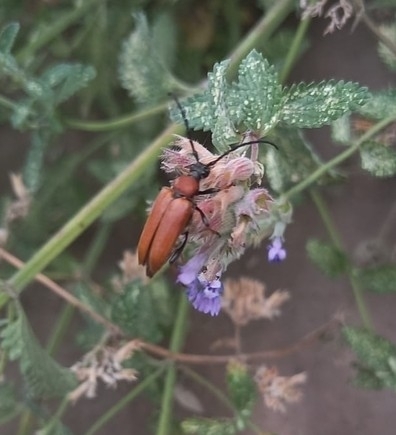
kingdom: Animalia
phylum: Arthropoda
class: Insecta
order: Coleoptera
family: Cerambycidae
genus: Stictoleptura
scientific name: Stictoleptura rubra
